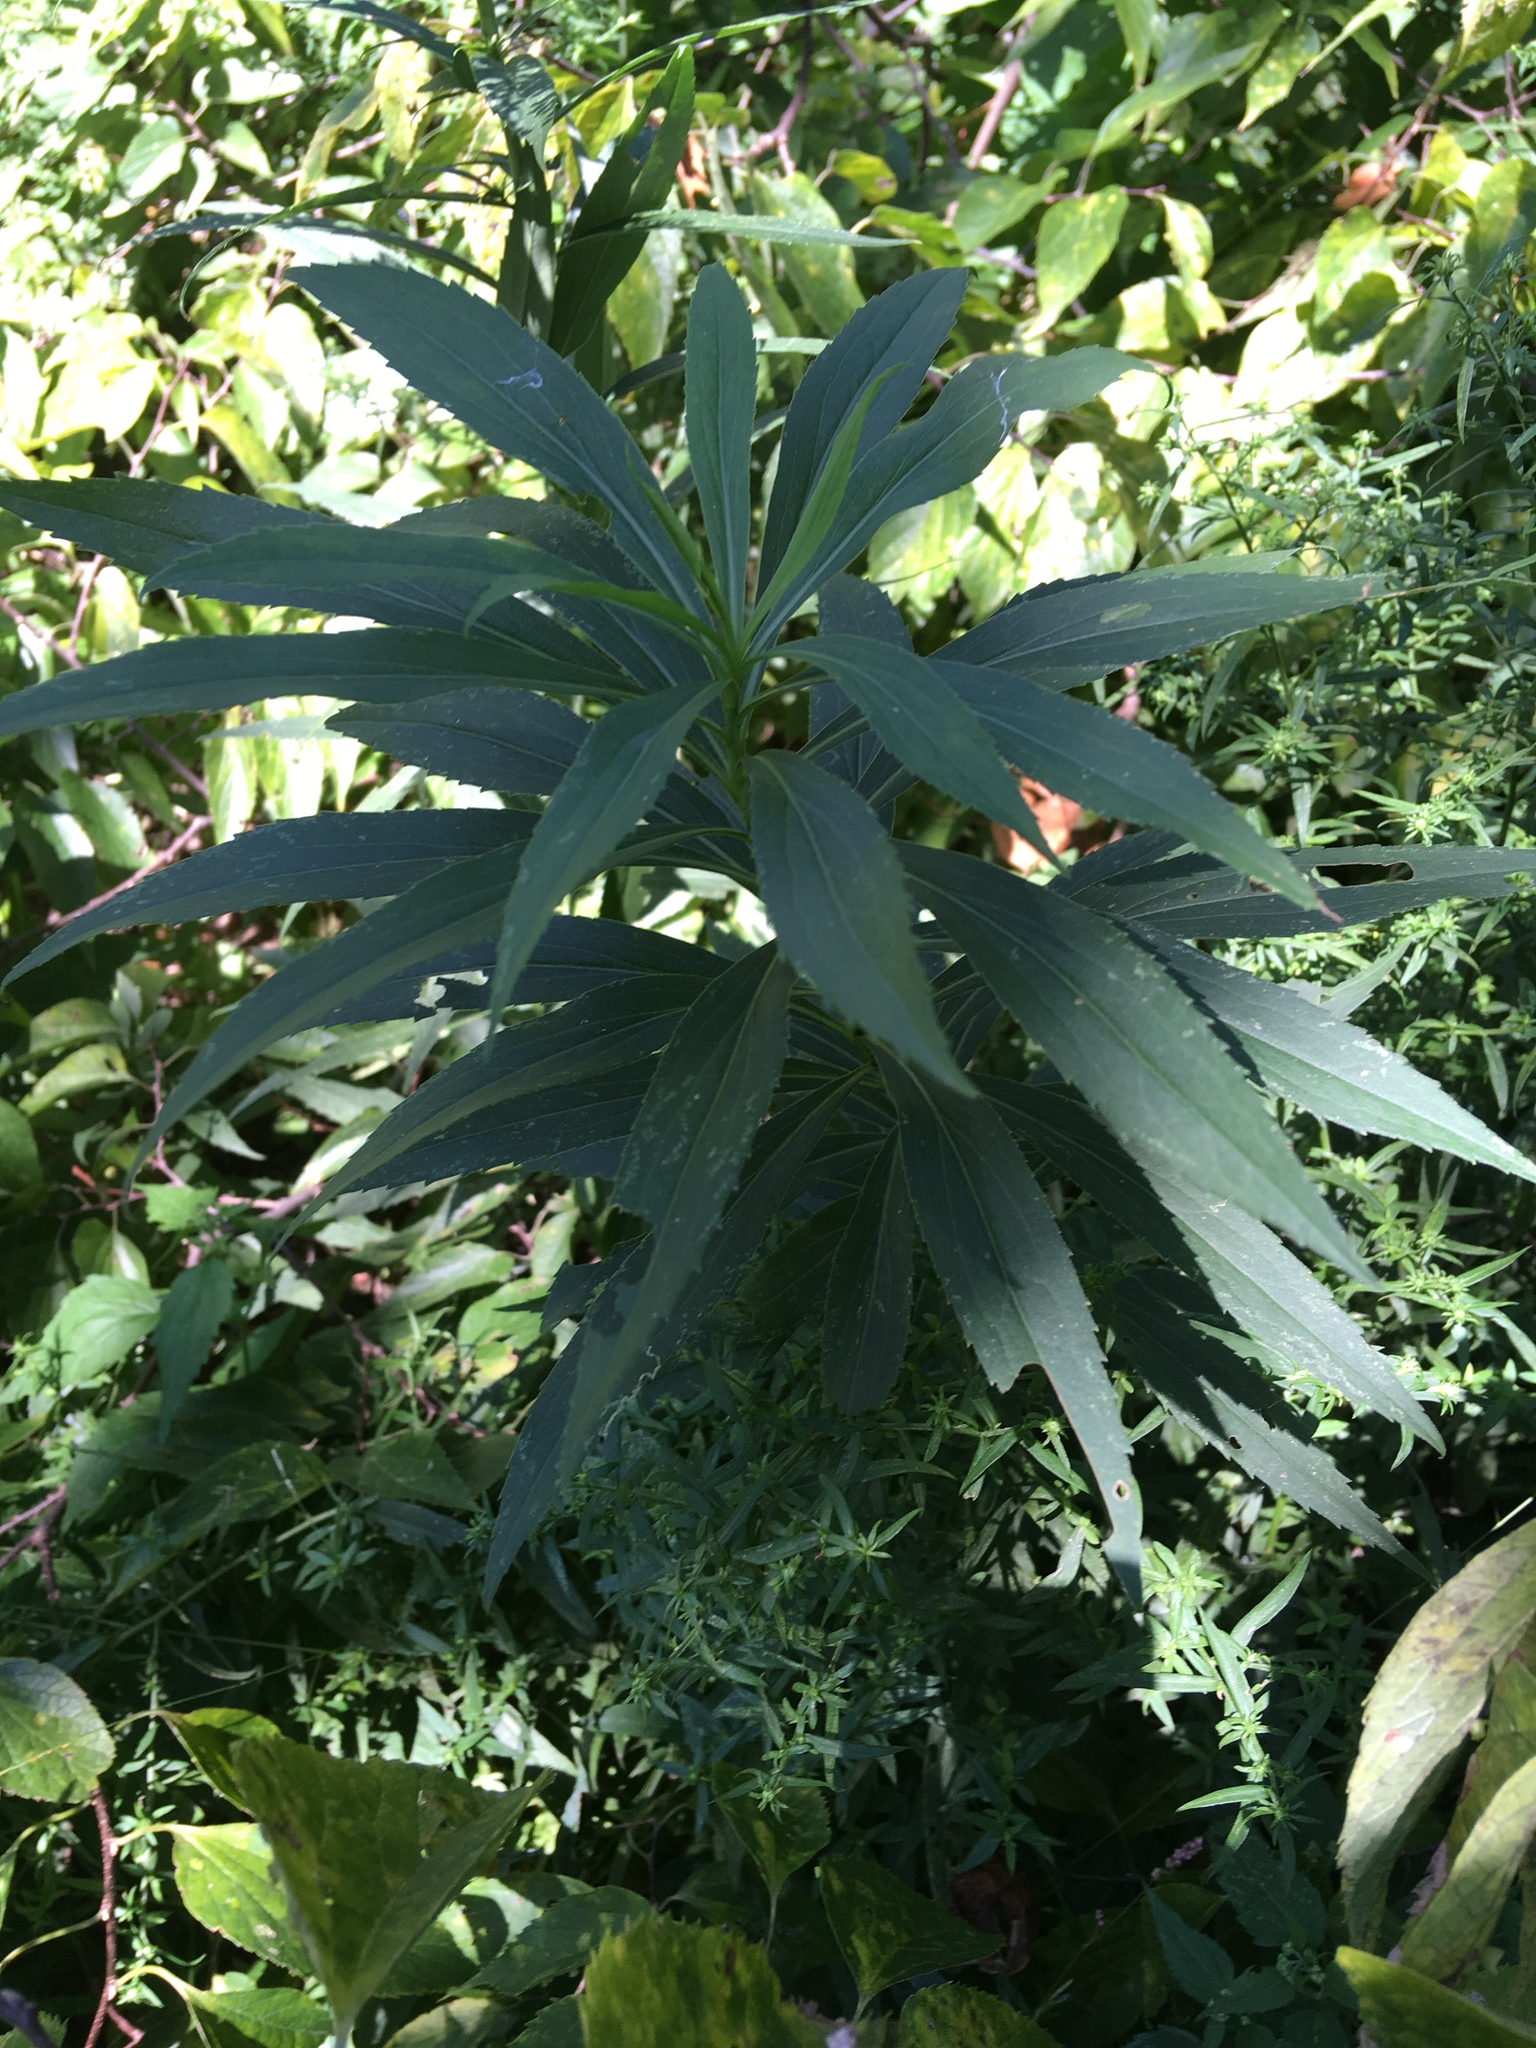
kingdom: Plantae
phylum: Tracheophyta
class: Magnoliopsida
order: Asterales
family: Asteraceae
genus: Solidago
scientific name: Solidago gigantea
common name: Giant goldenrod
